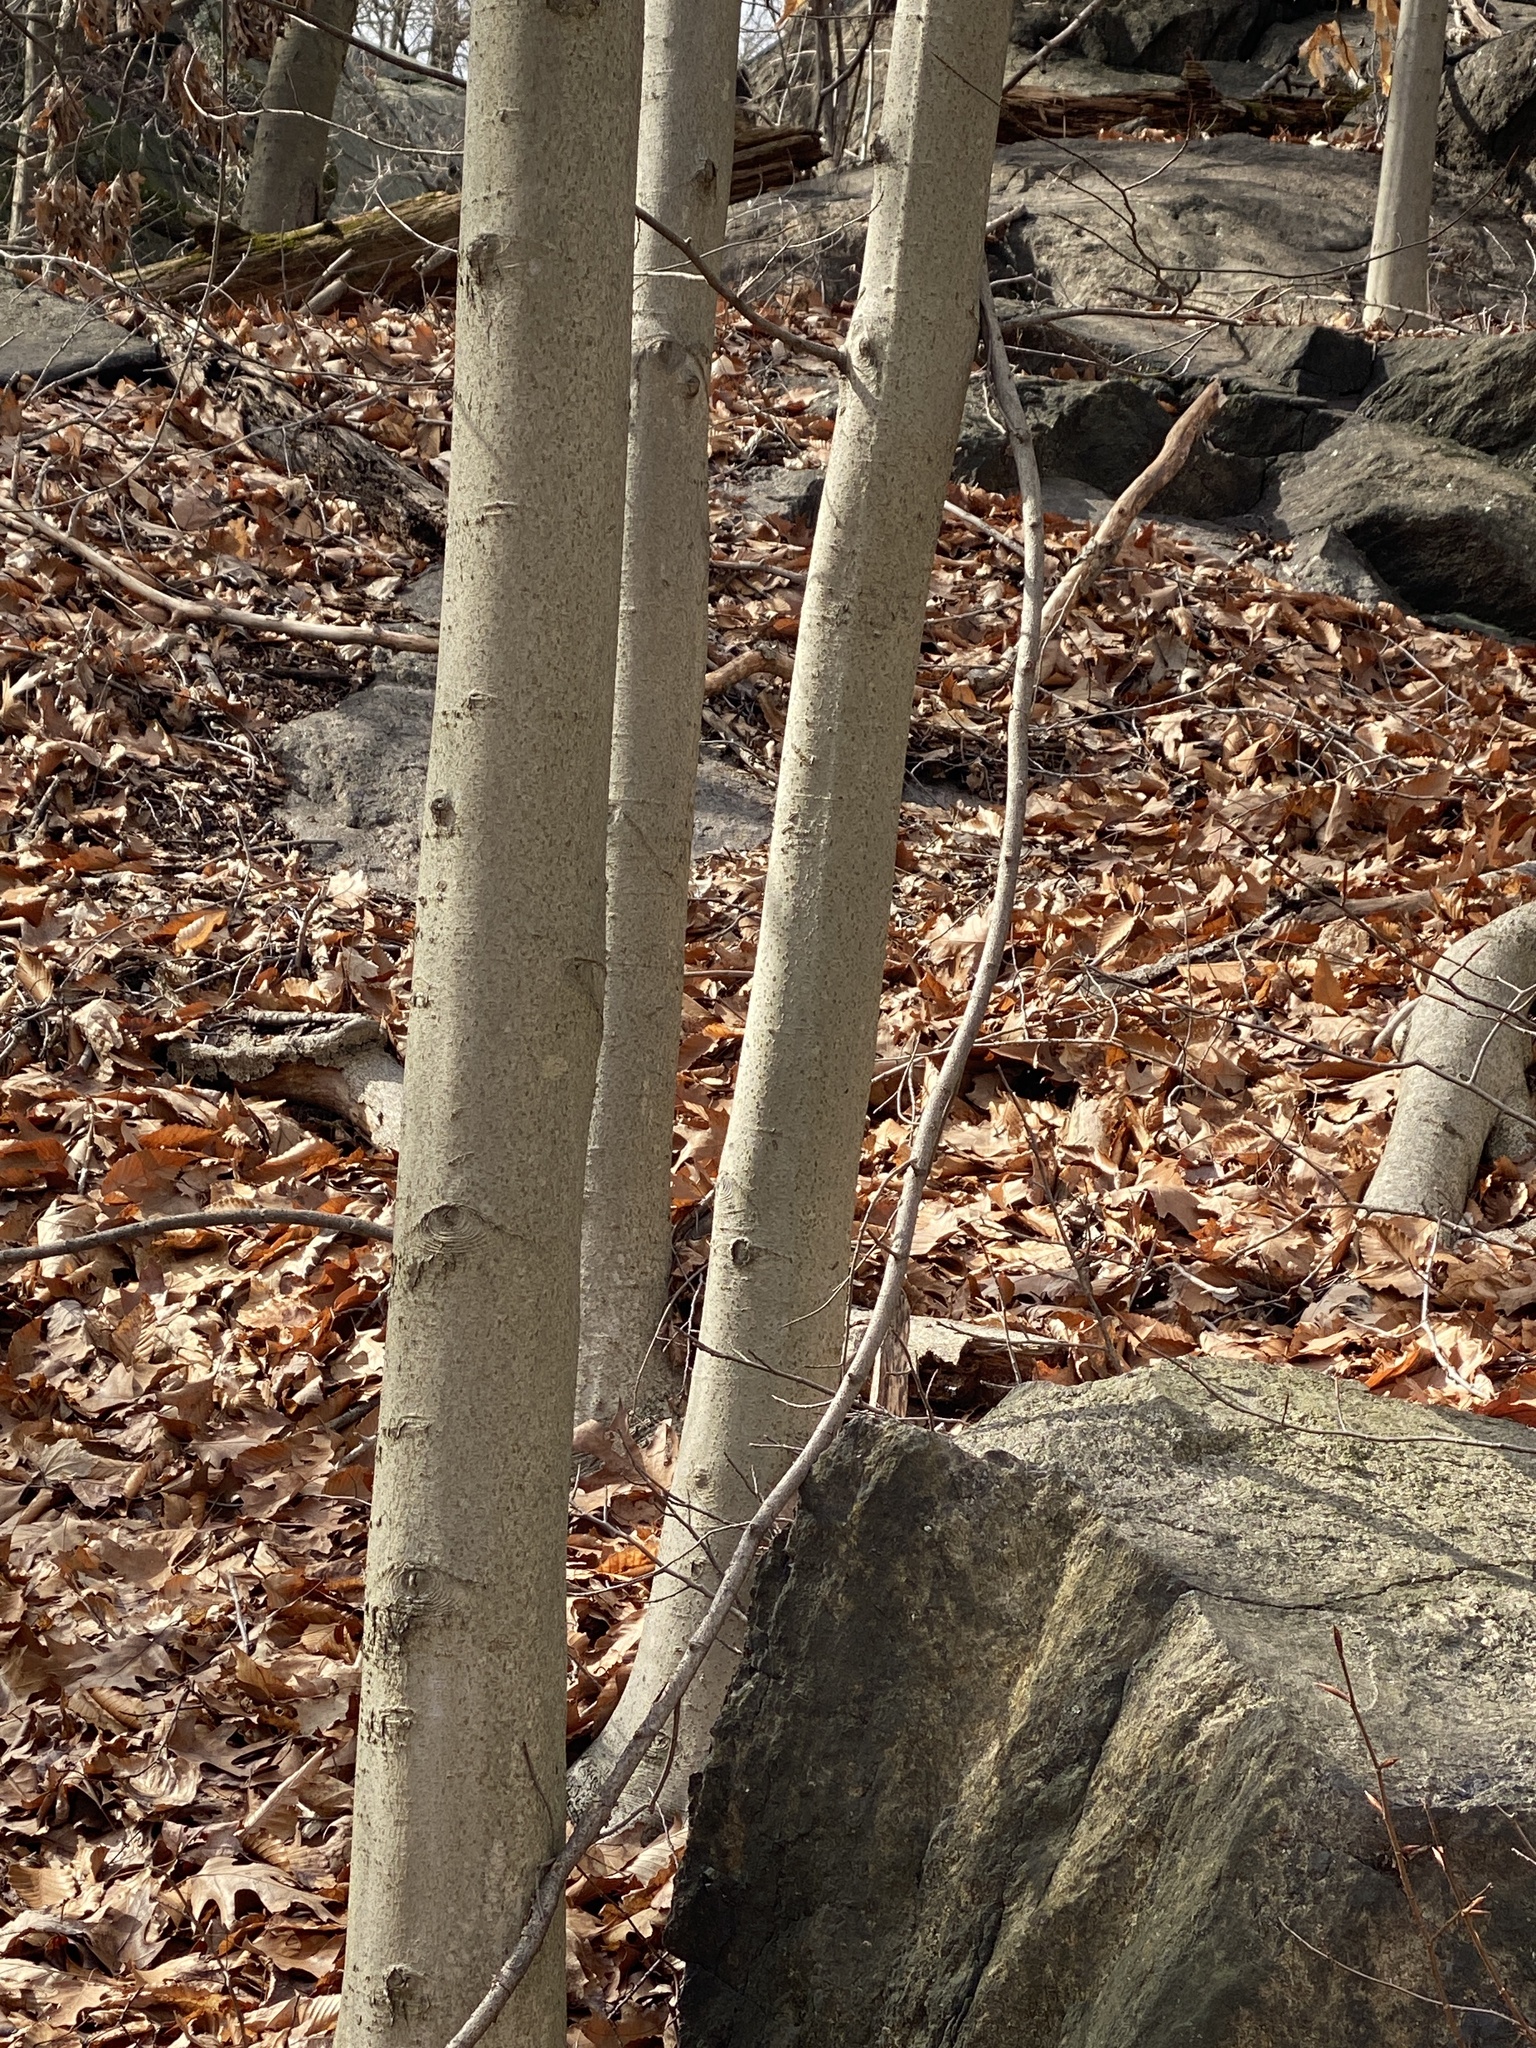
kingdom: Plantae
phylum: Tracheophyta
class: Magnoliopsida
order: Fagales
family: Fagaceae
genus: Fagus
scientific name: Fagus grandifolia
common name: American beech
